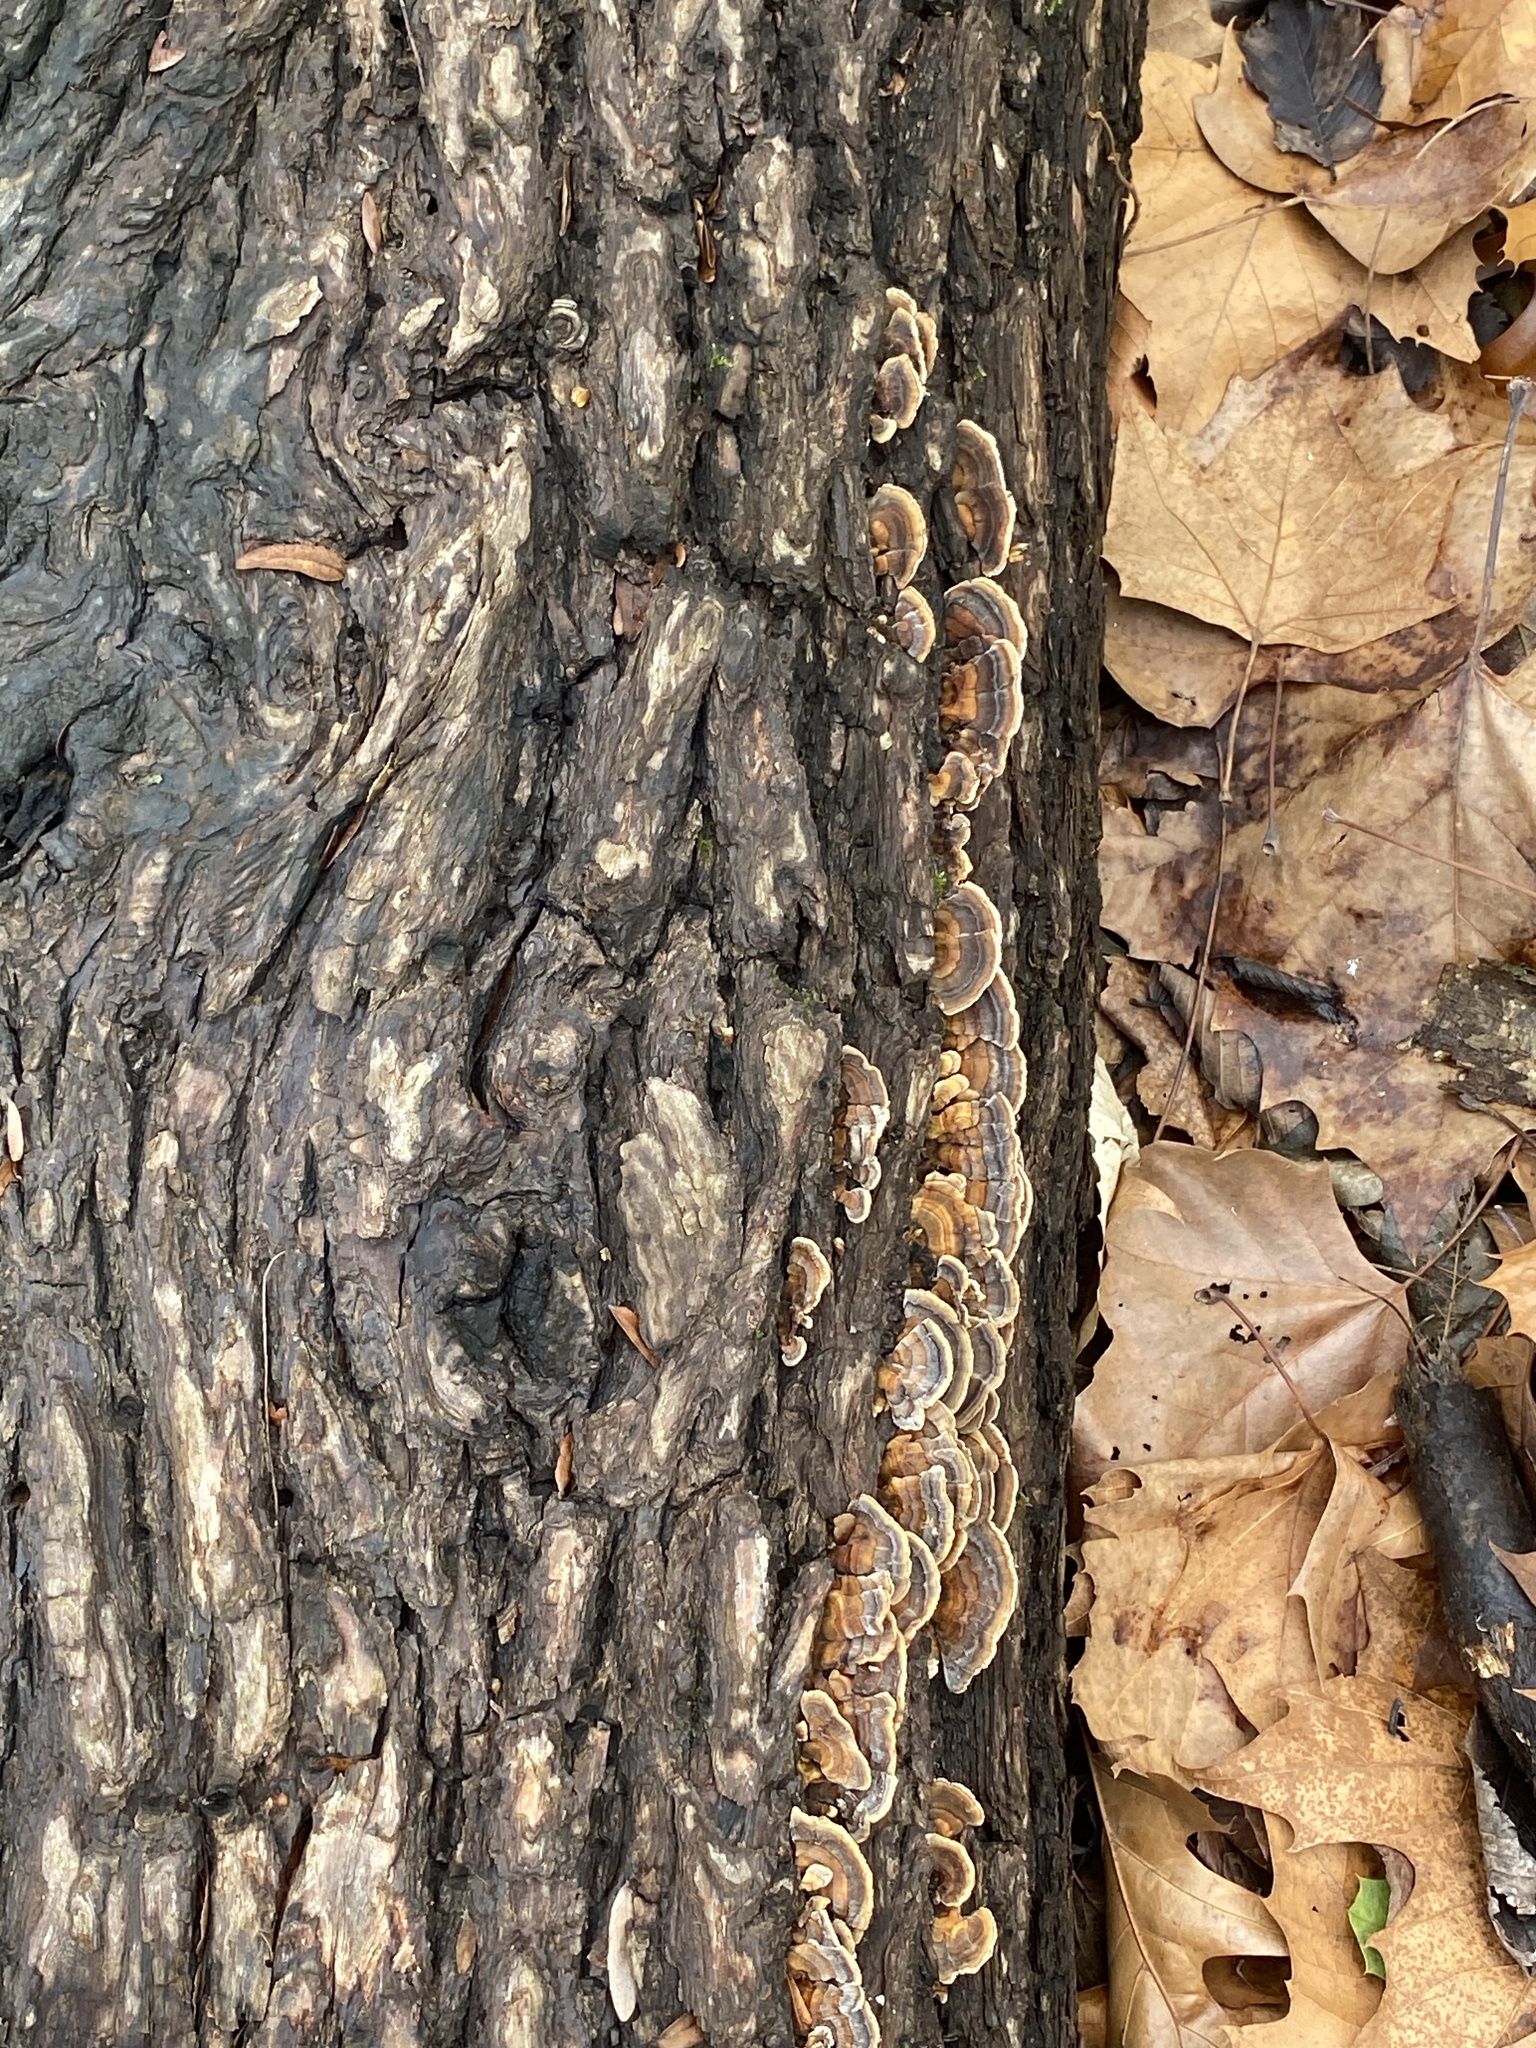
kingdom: Fungi
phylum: Basidiomycota
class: Agaricomycetes
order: Polyporales
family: Polyporaceae
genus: Trametes
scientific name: Trametes versicolor
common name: Turkeytail
